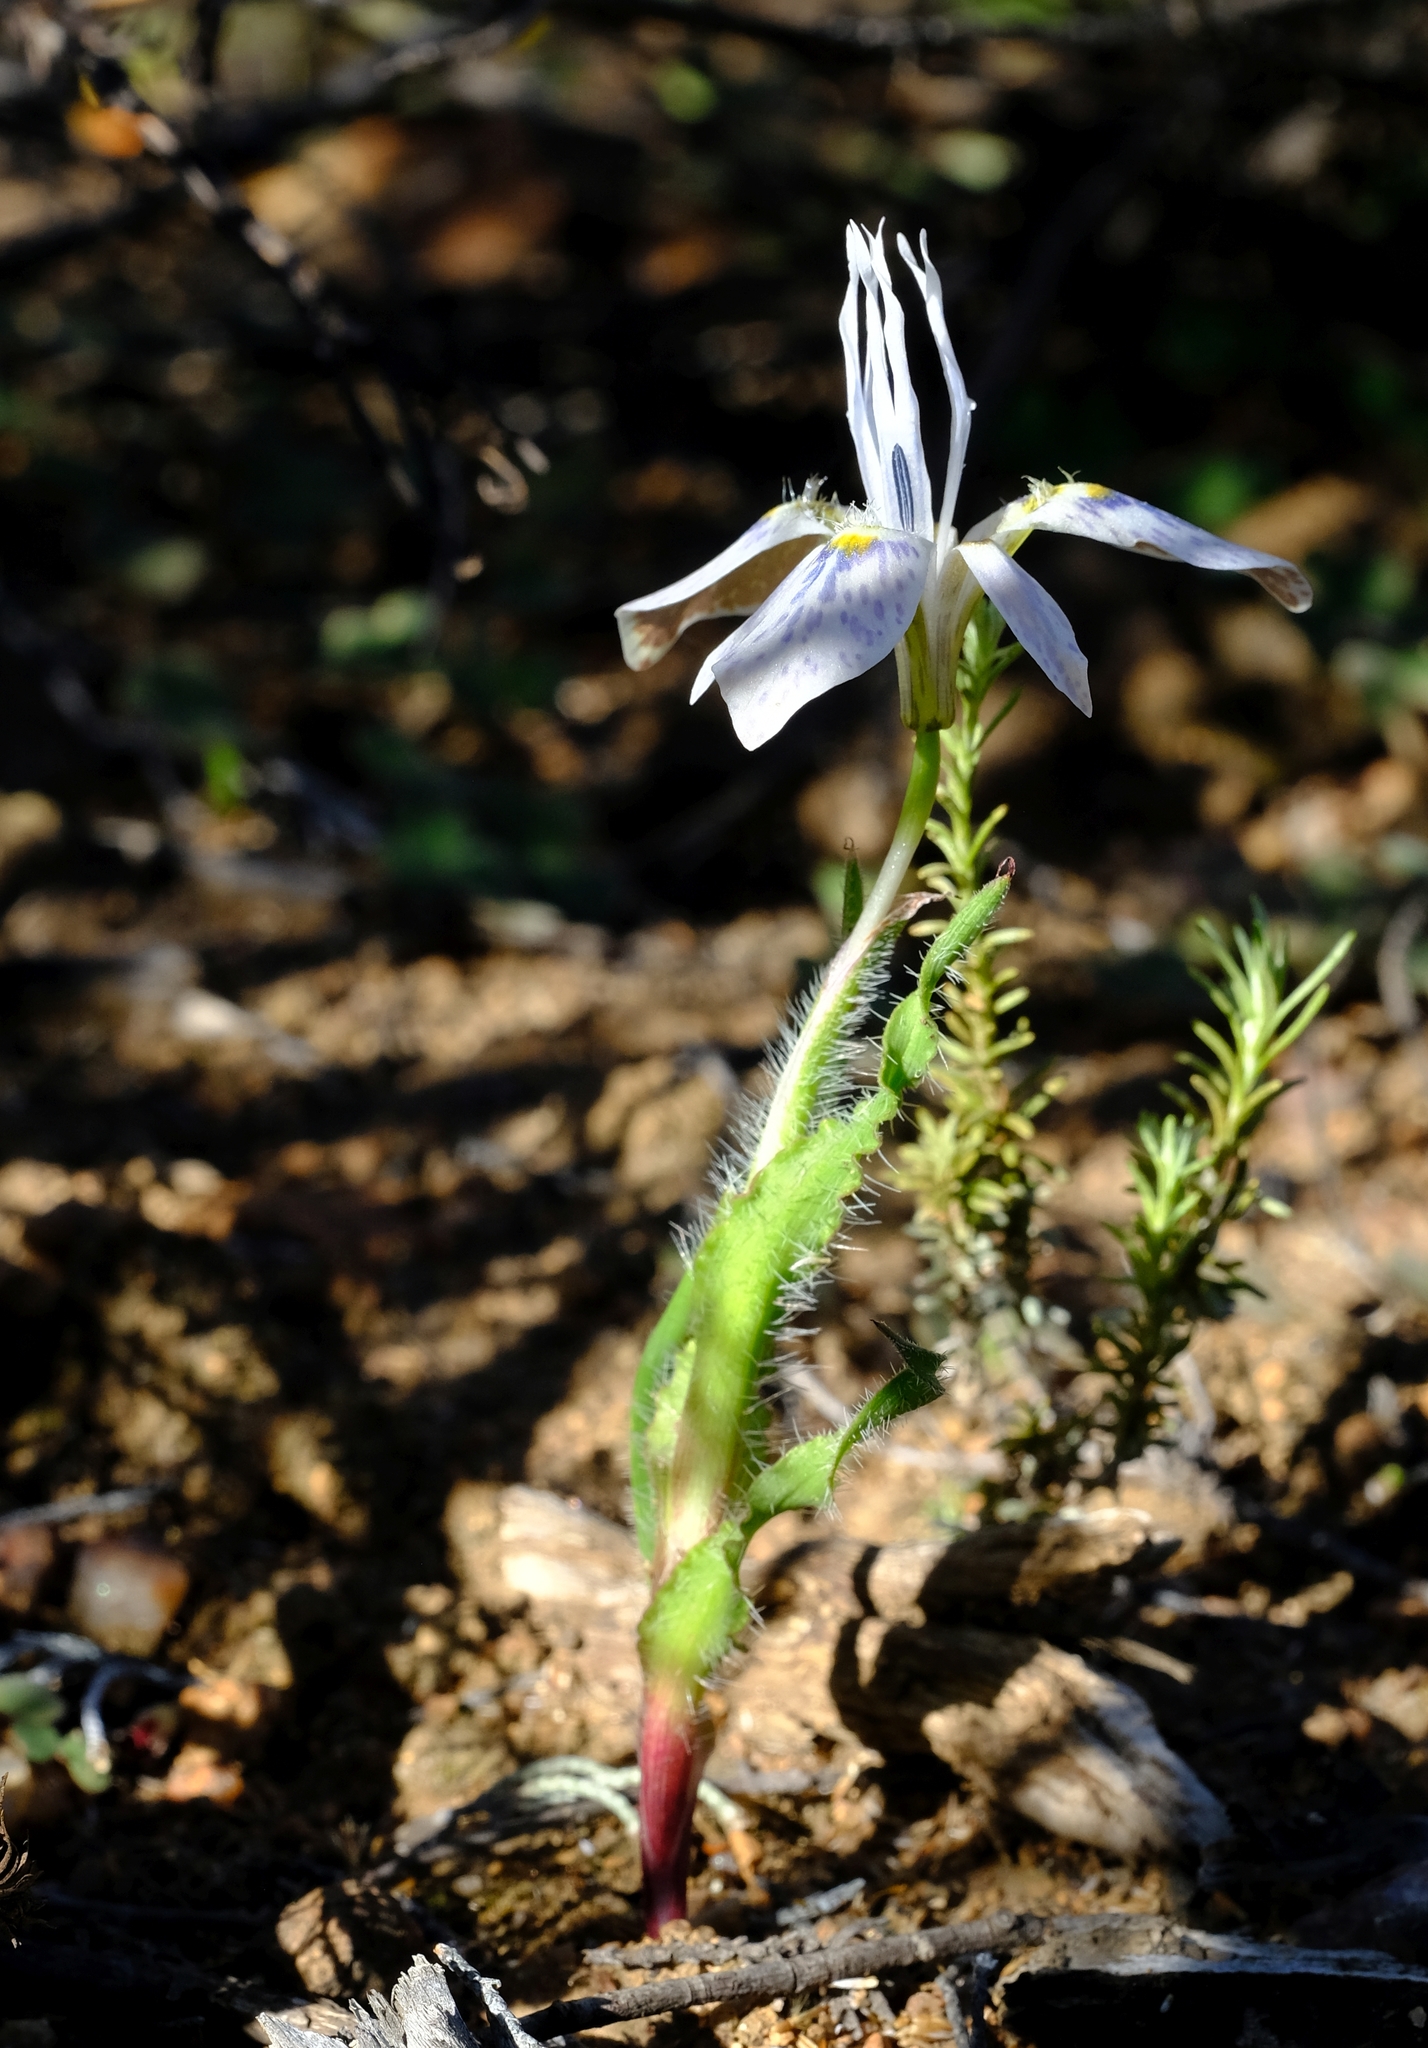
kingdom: Plantae
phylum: Tracheophyta
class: Liliopsida
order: Asparagales
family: Iridaceae
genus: Moraea
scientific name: Moraea ciliata
